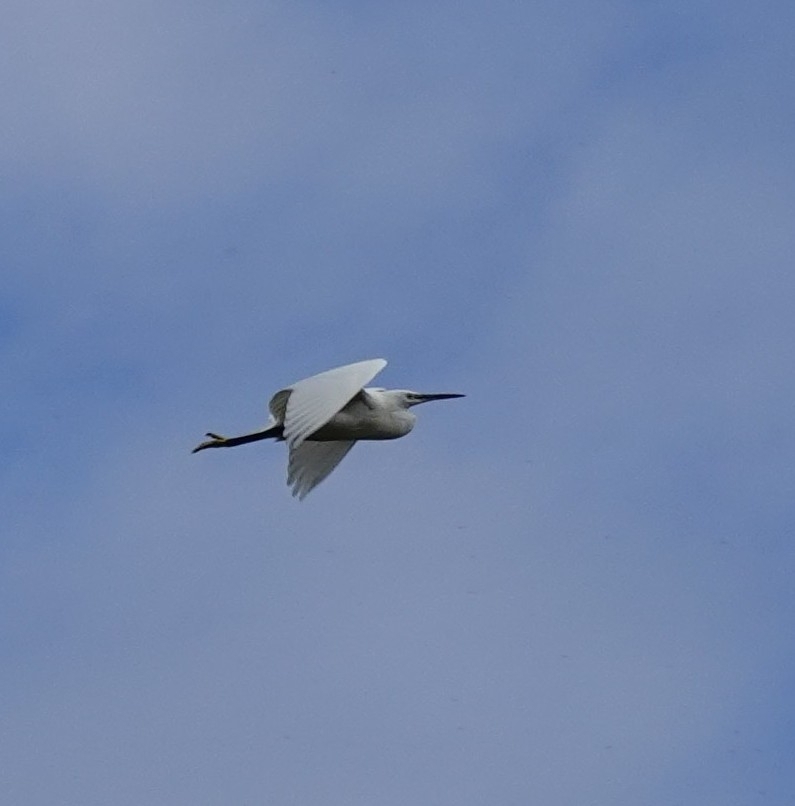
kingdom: Animalia
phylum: Chordata
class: Aves
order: Pelecaniformes
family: Ardeidae
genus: Egretta
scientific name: Egretta garzetta
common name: Little egret
